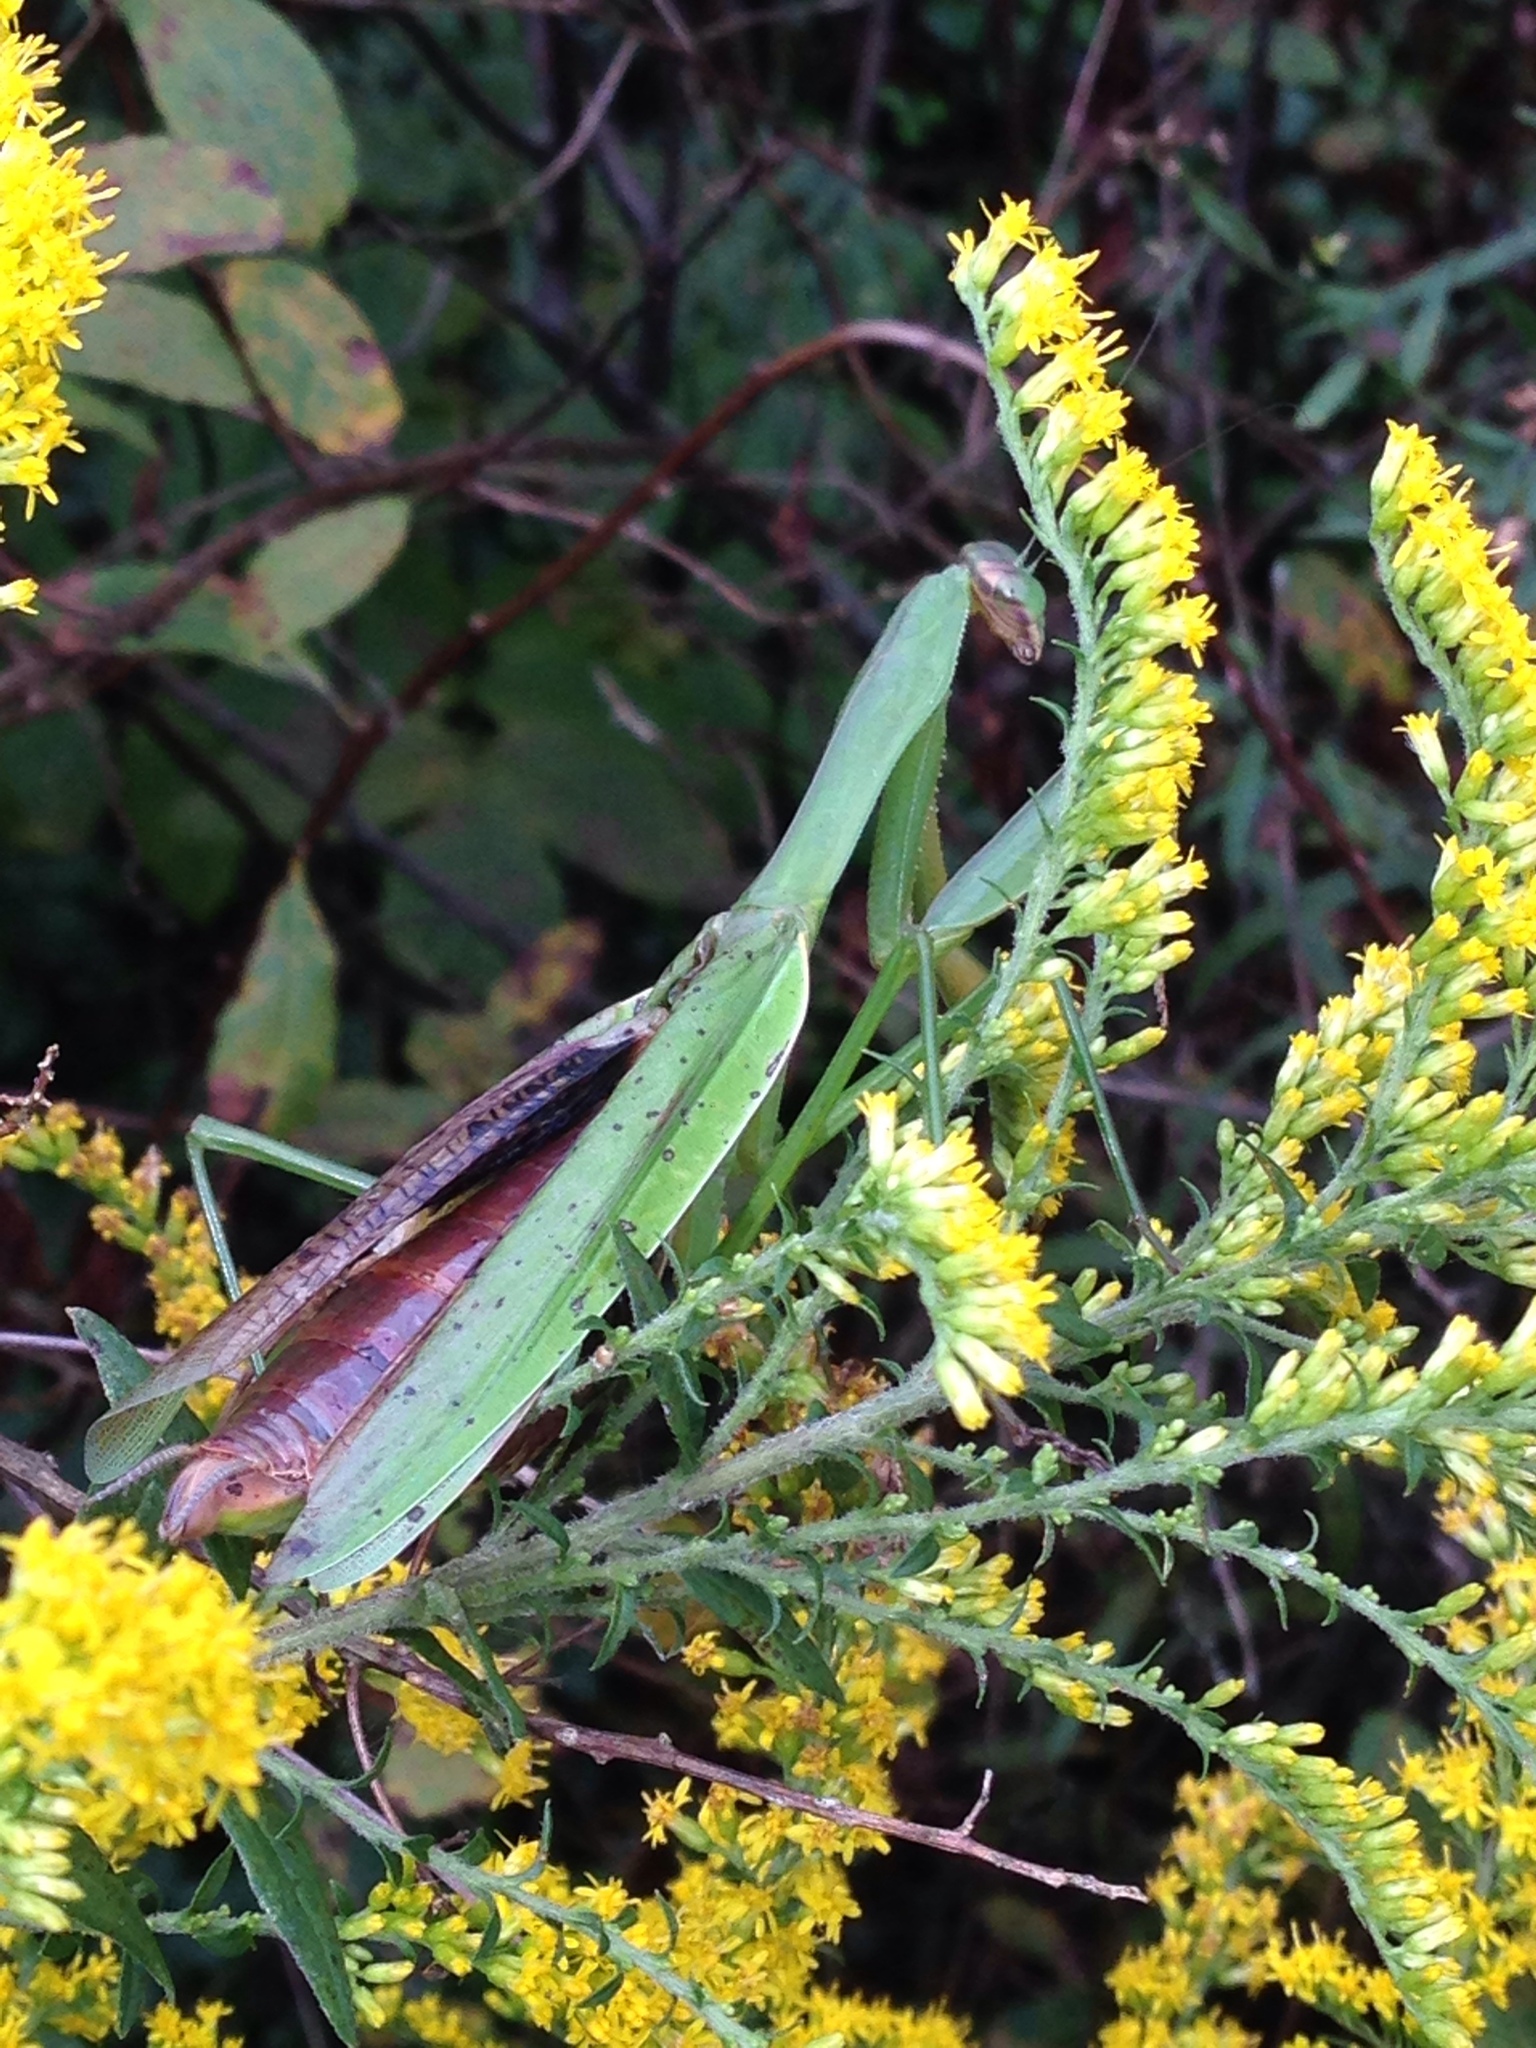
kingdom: Animalia
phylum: Arthropoda
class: Insecta
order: Mantodea
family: Mantidae
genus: Tenodera
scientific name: Tenodera sinensis
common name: Chinese mantis
